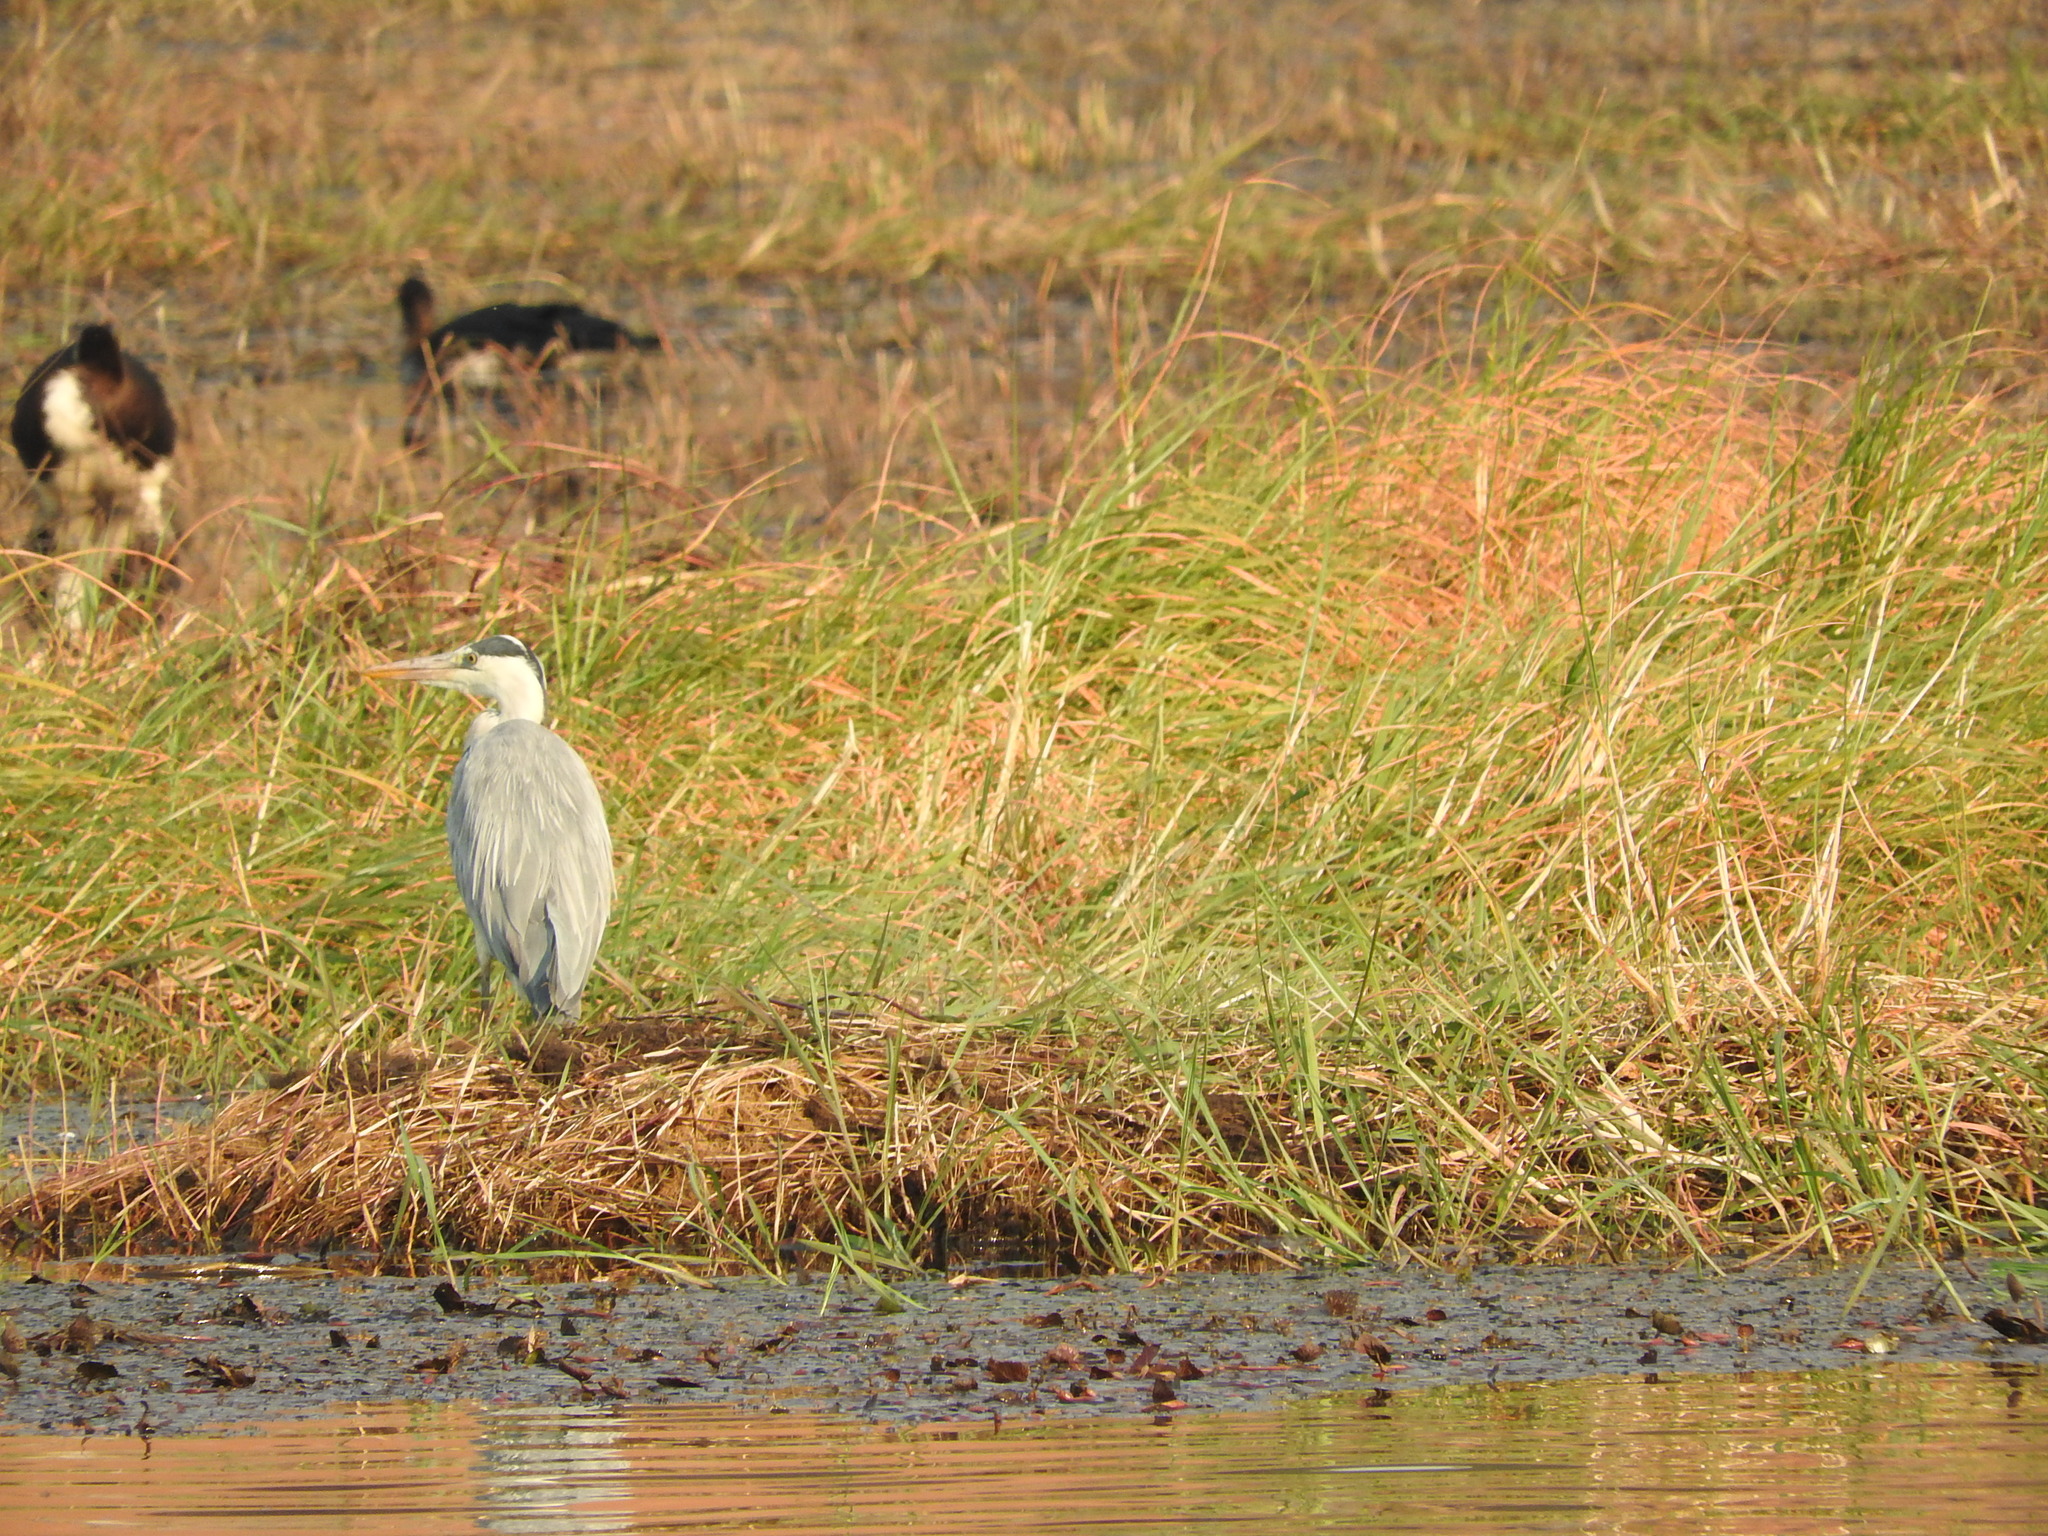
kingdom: Animalia
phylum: Chordata
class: Aves
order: Pelecaniformes
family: Ardeidae
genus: Ardea
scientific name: Ardea cinerea
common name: Grey heron
